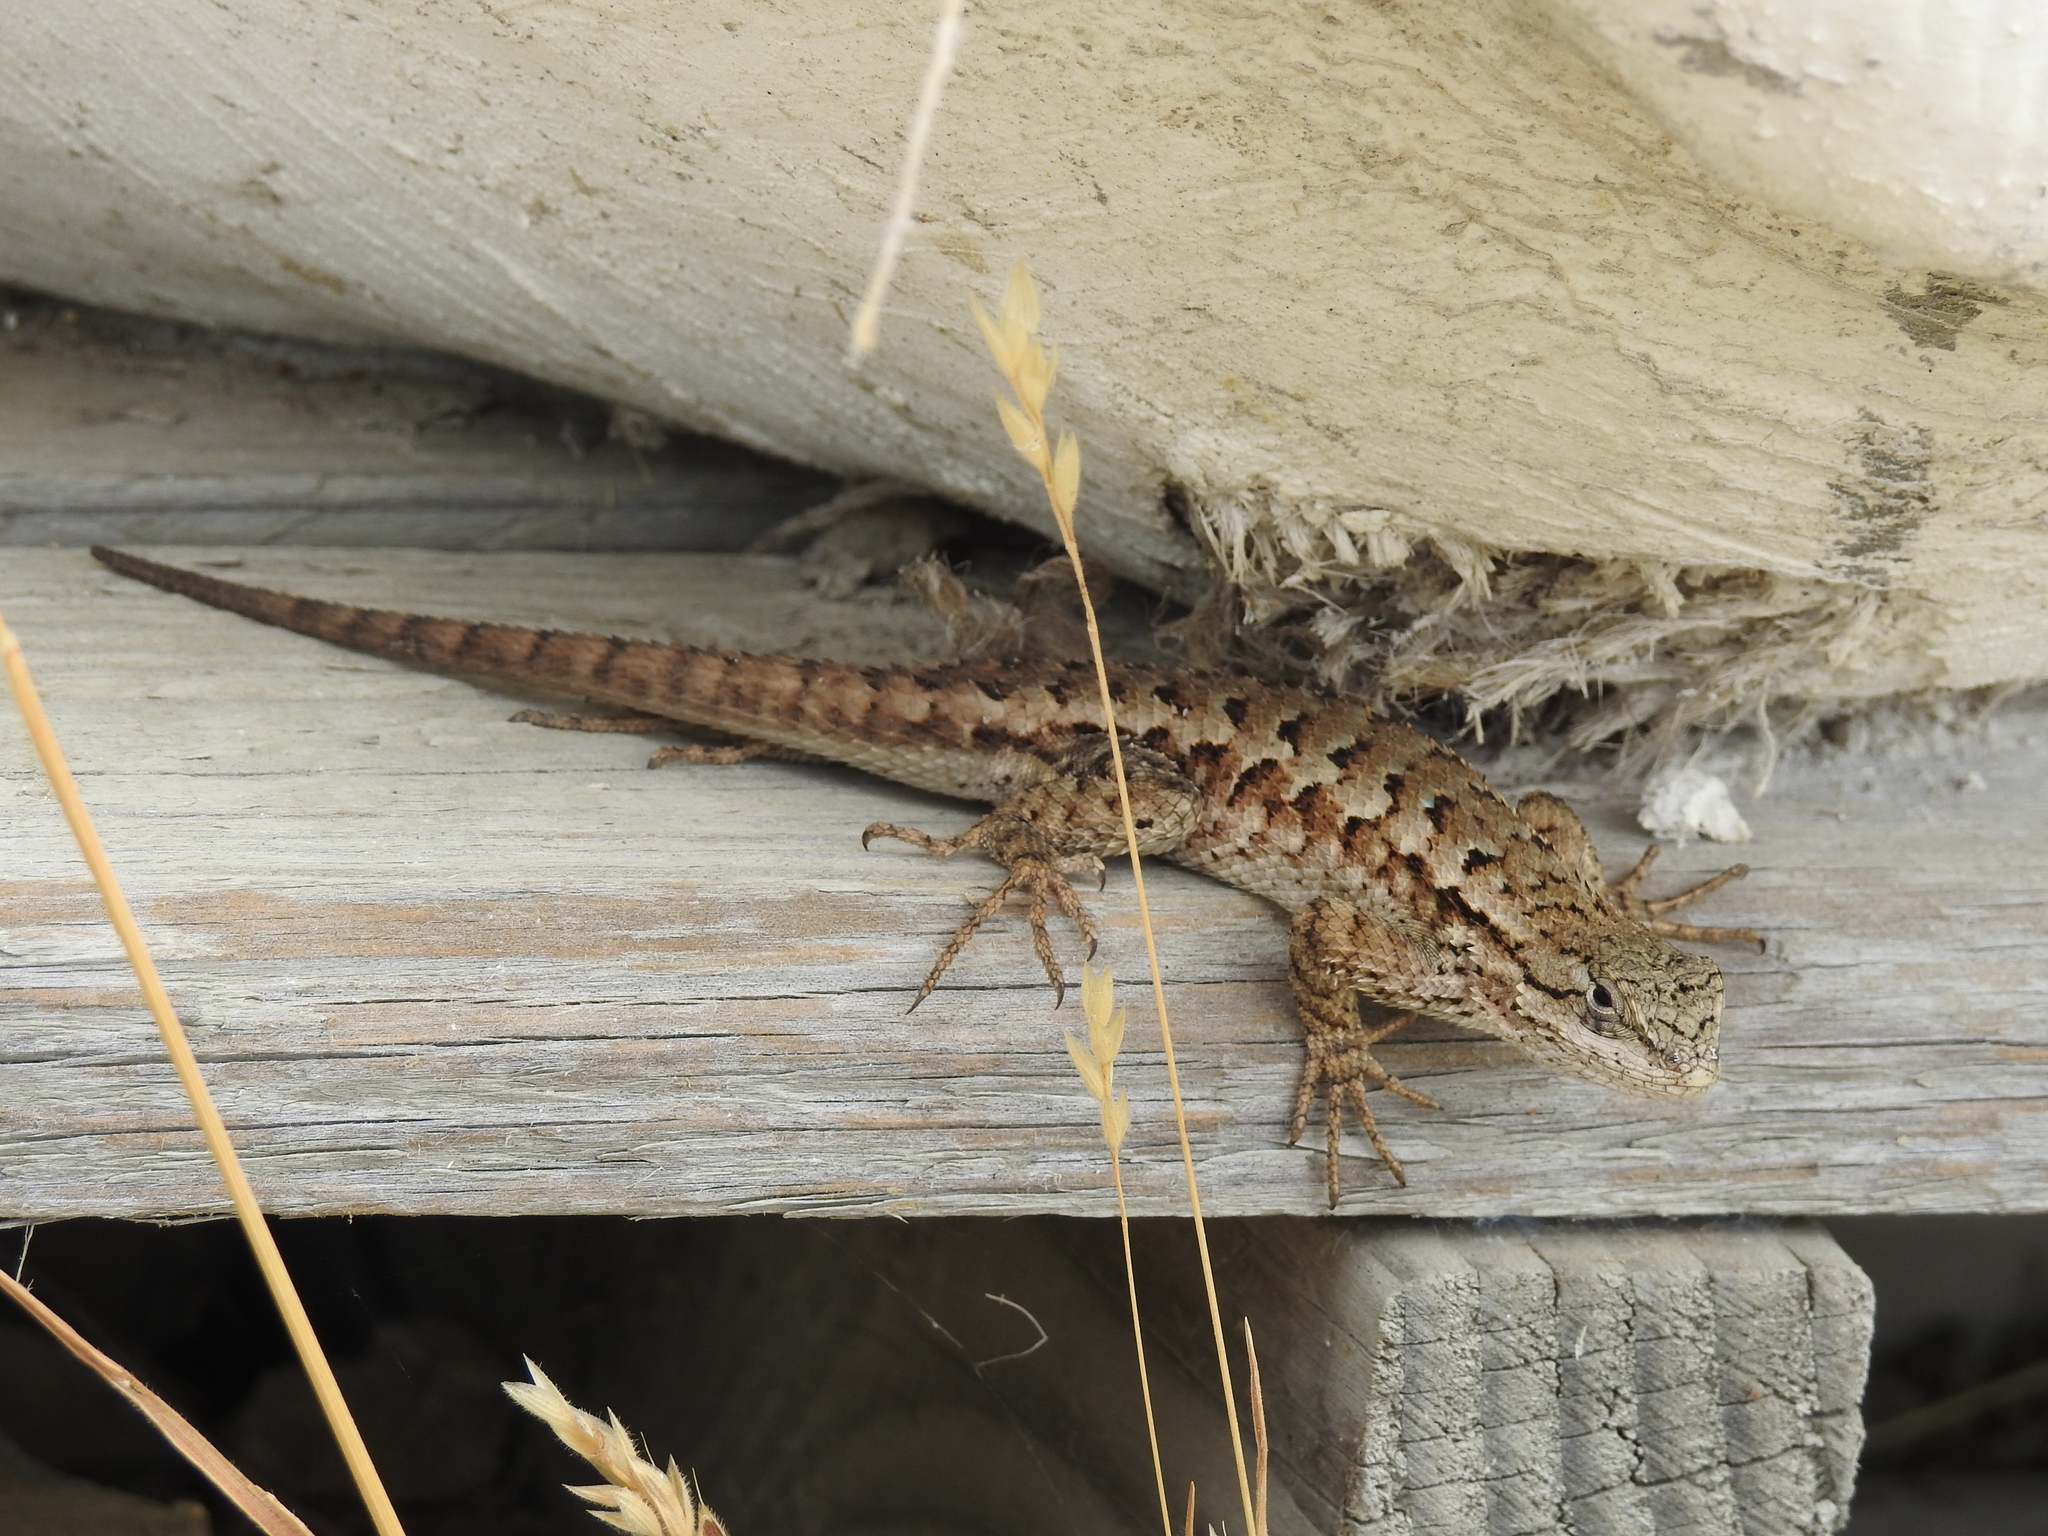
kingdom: Animalia
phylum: Chordata
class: Squamata
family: Phrynosomatidae
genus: Sceloporus
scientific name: Sceloporus occidentalis
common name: Western fence lizard
